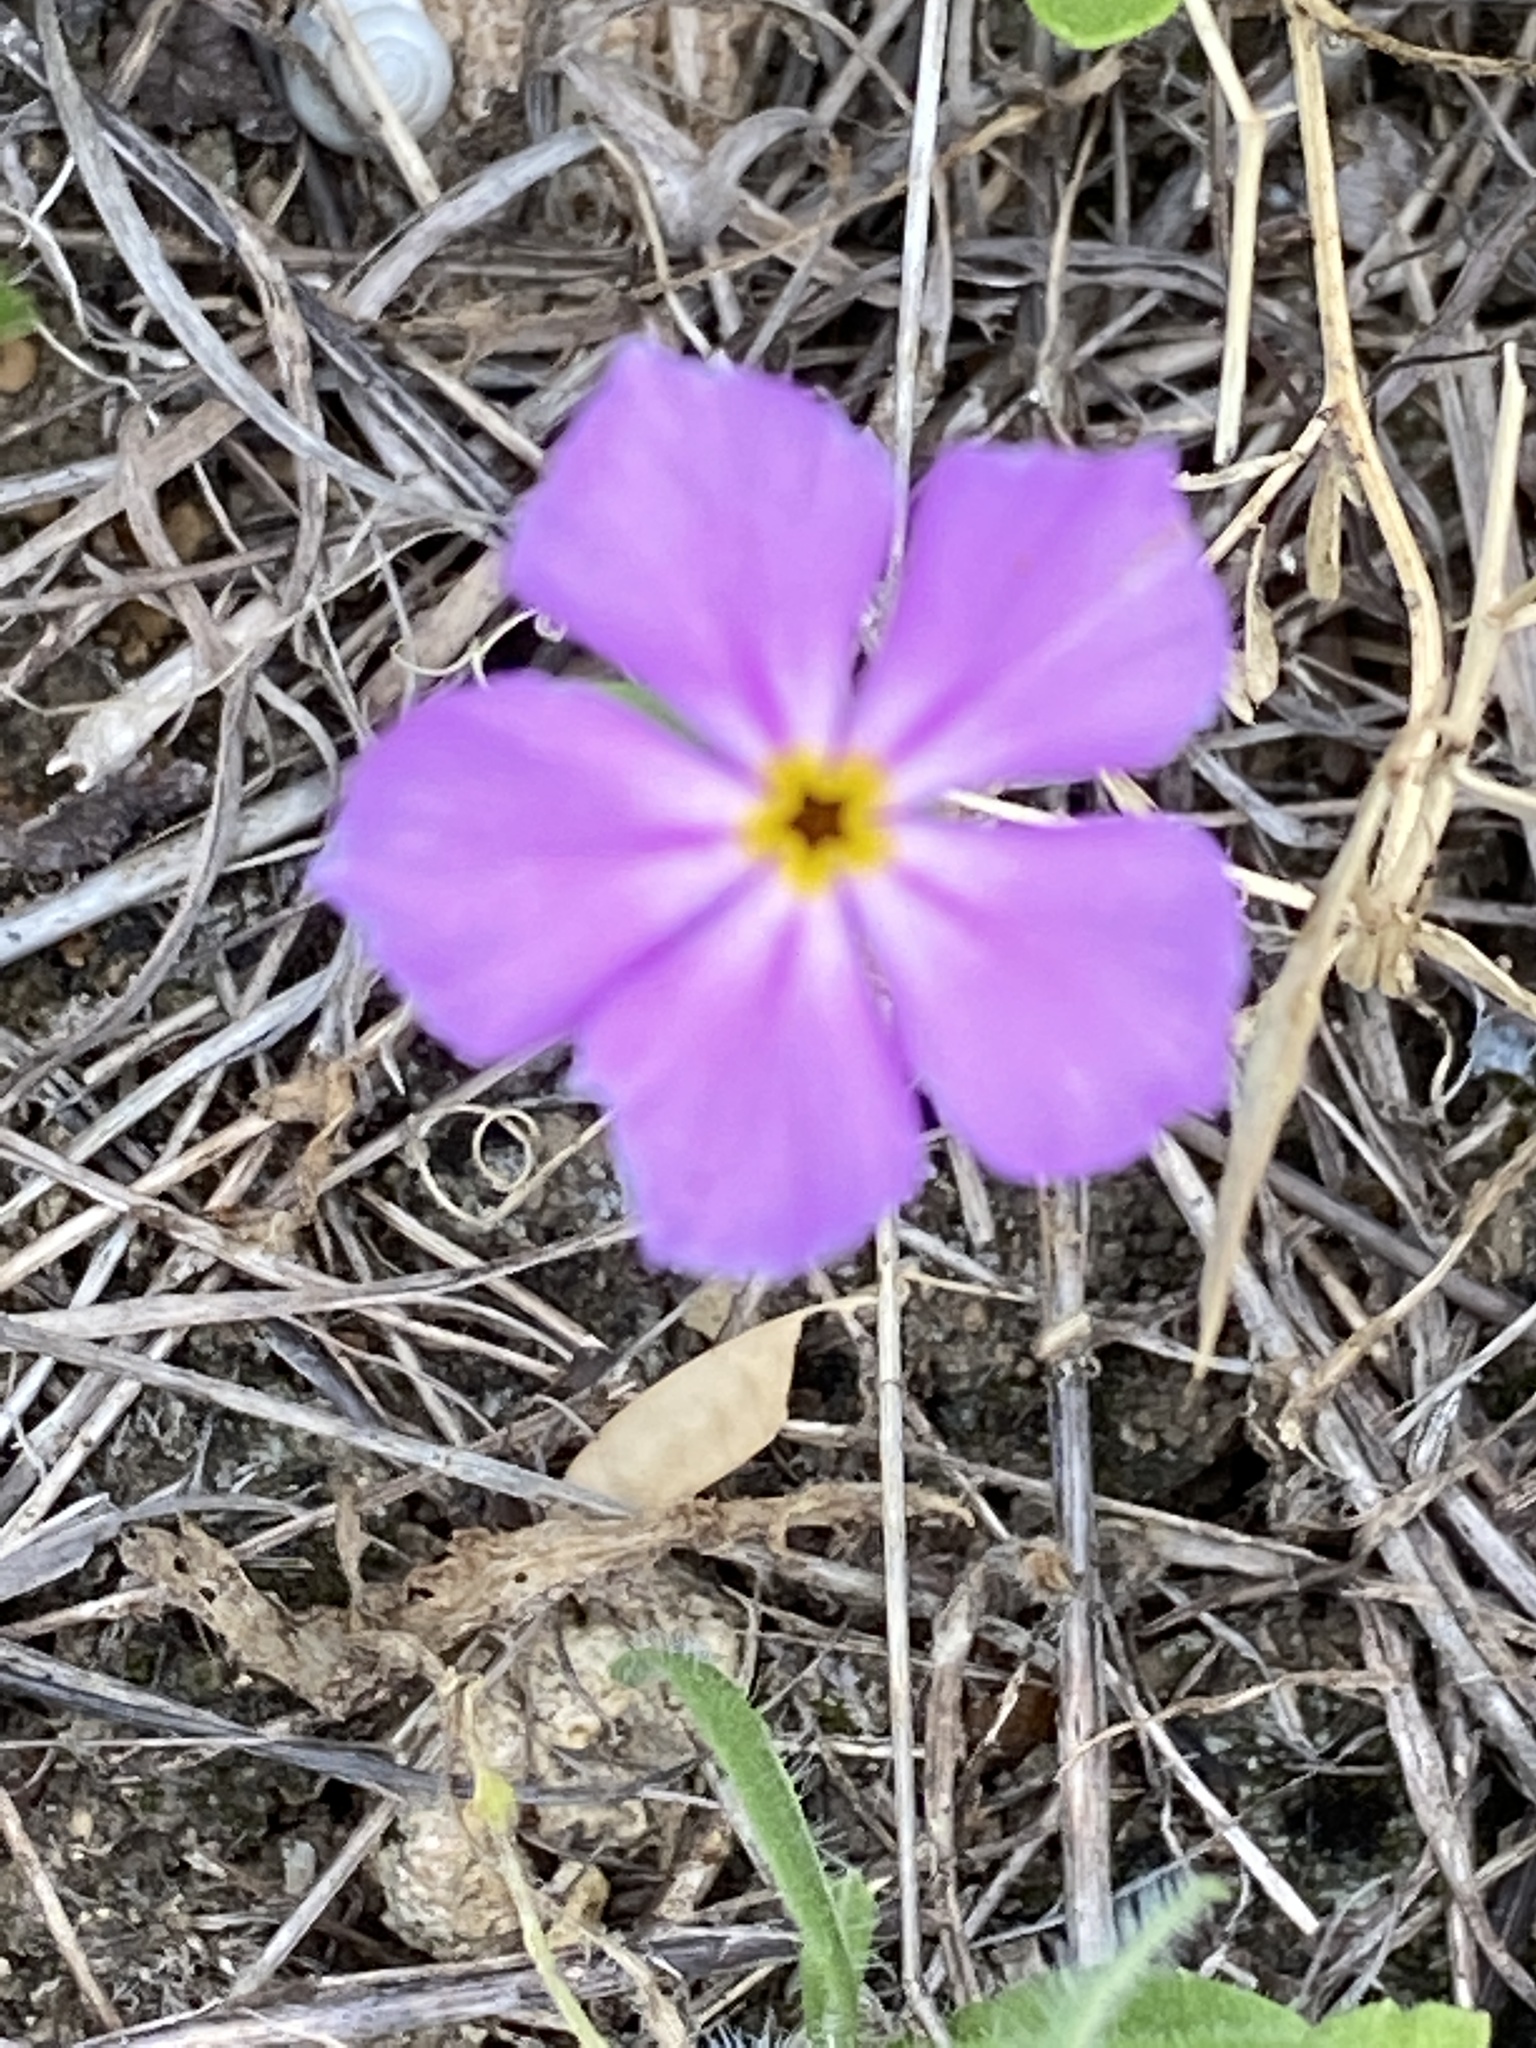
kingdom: Plantae
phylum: Tracheophyta
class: Magnoliopsida
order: Ericales
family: Polemoniaceae
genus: Phlox
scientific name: Phlox roemeriana
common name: Roemer's phlox
